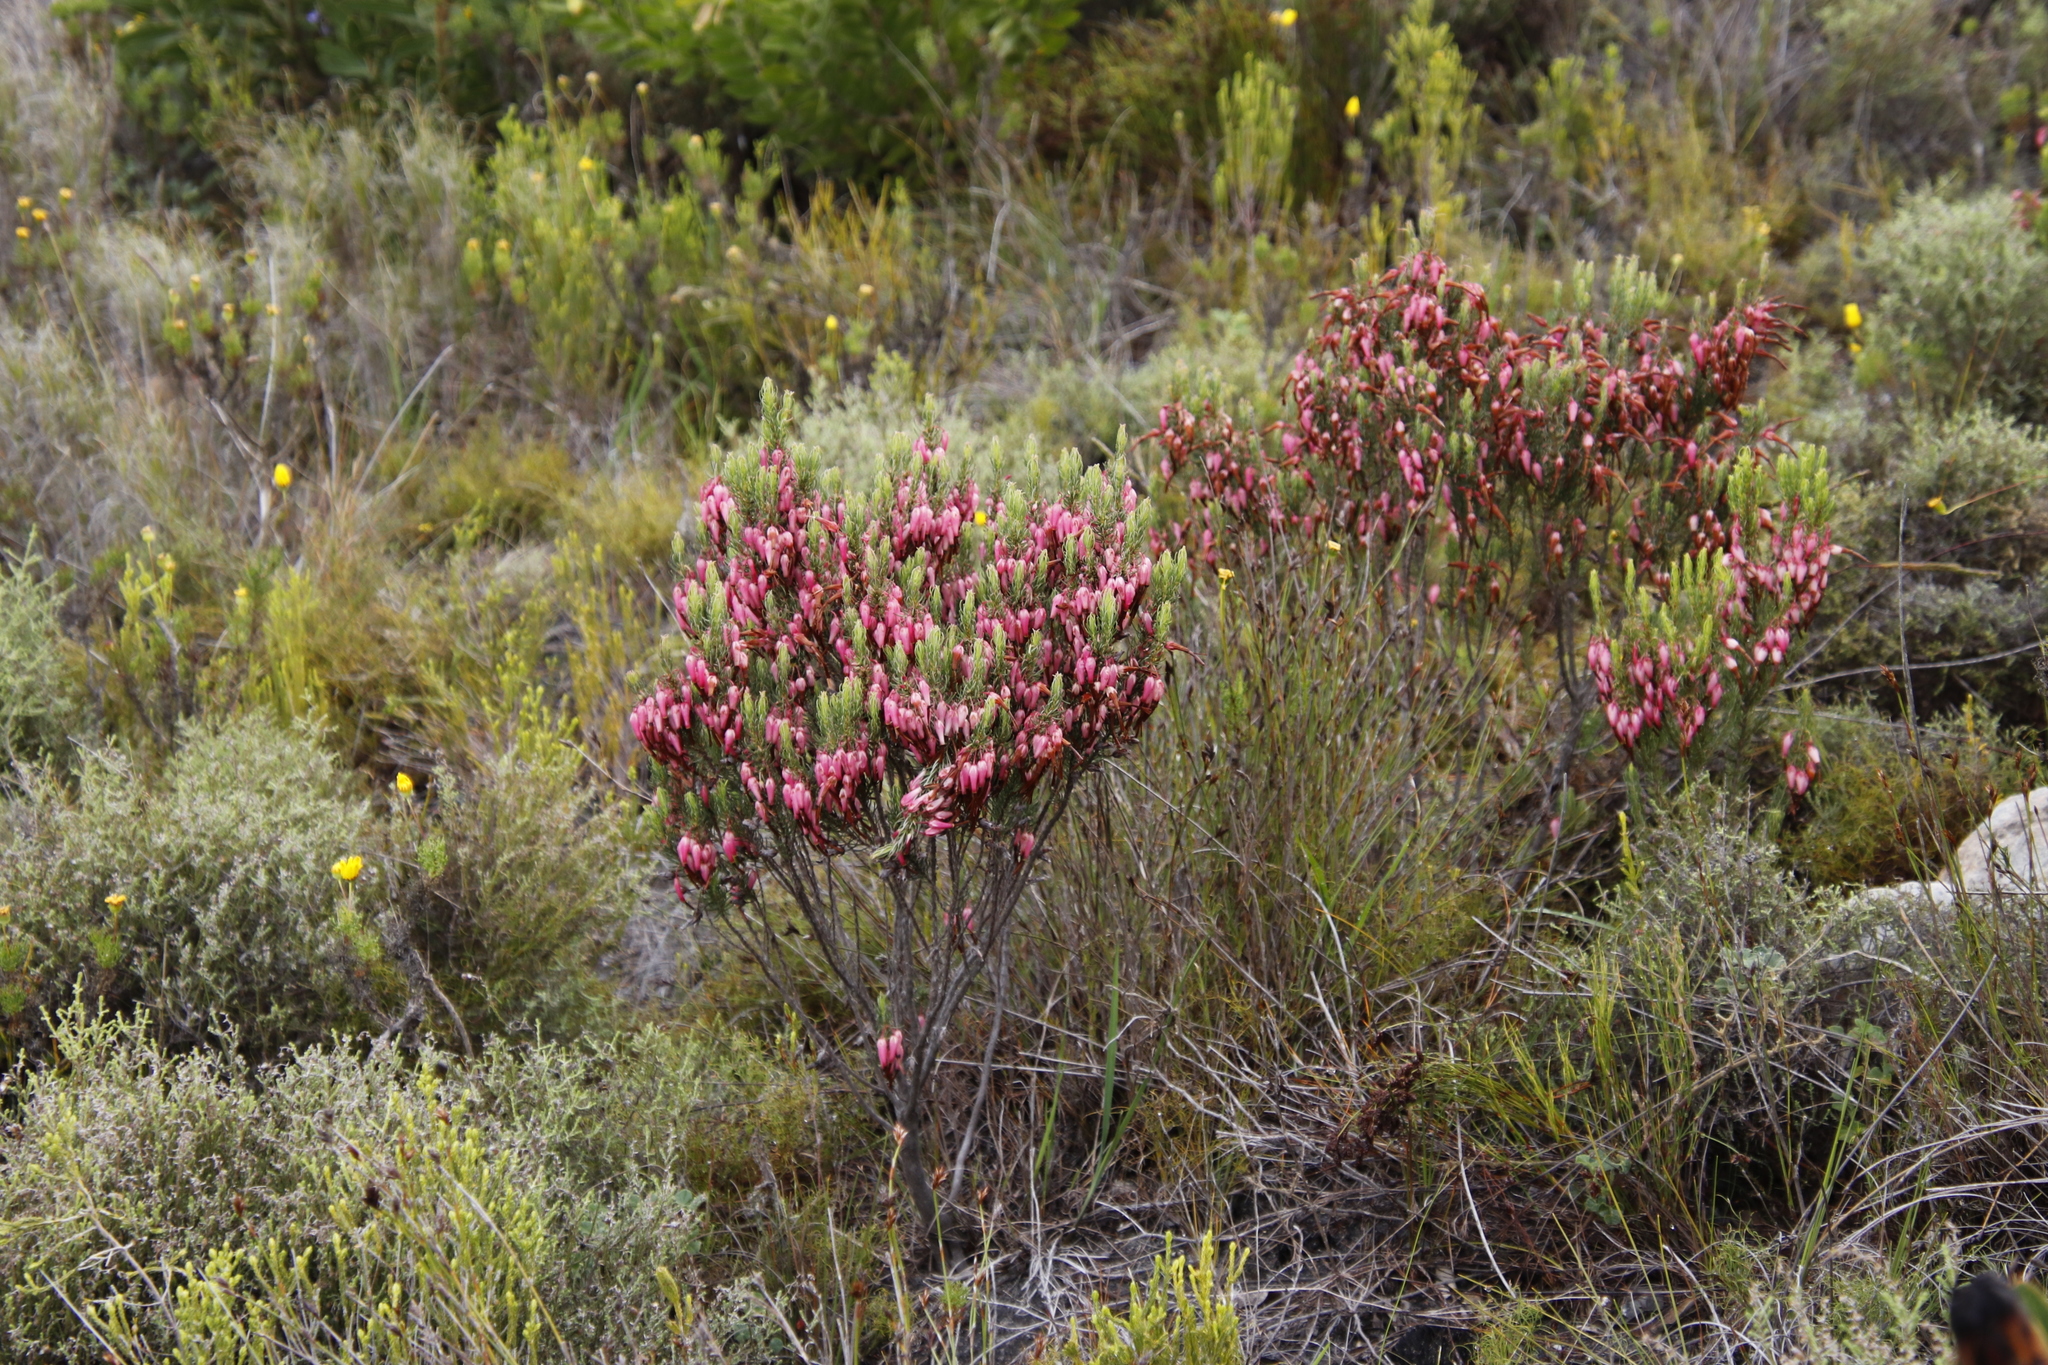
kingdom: Plantae
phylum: Tracheophyta
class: Magnoliopsida
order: Ericales
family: Ericaceae
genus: Erica
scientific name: Erica plukenetii
